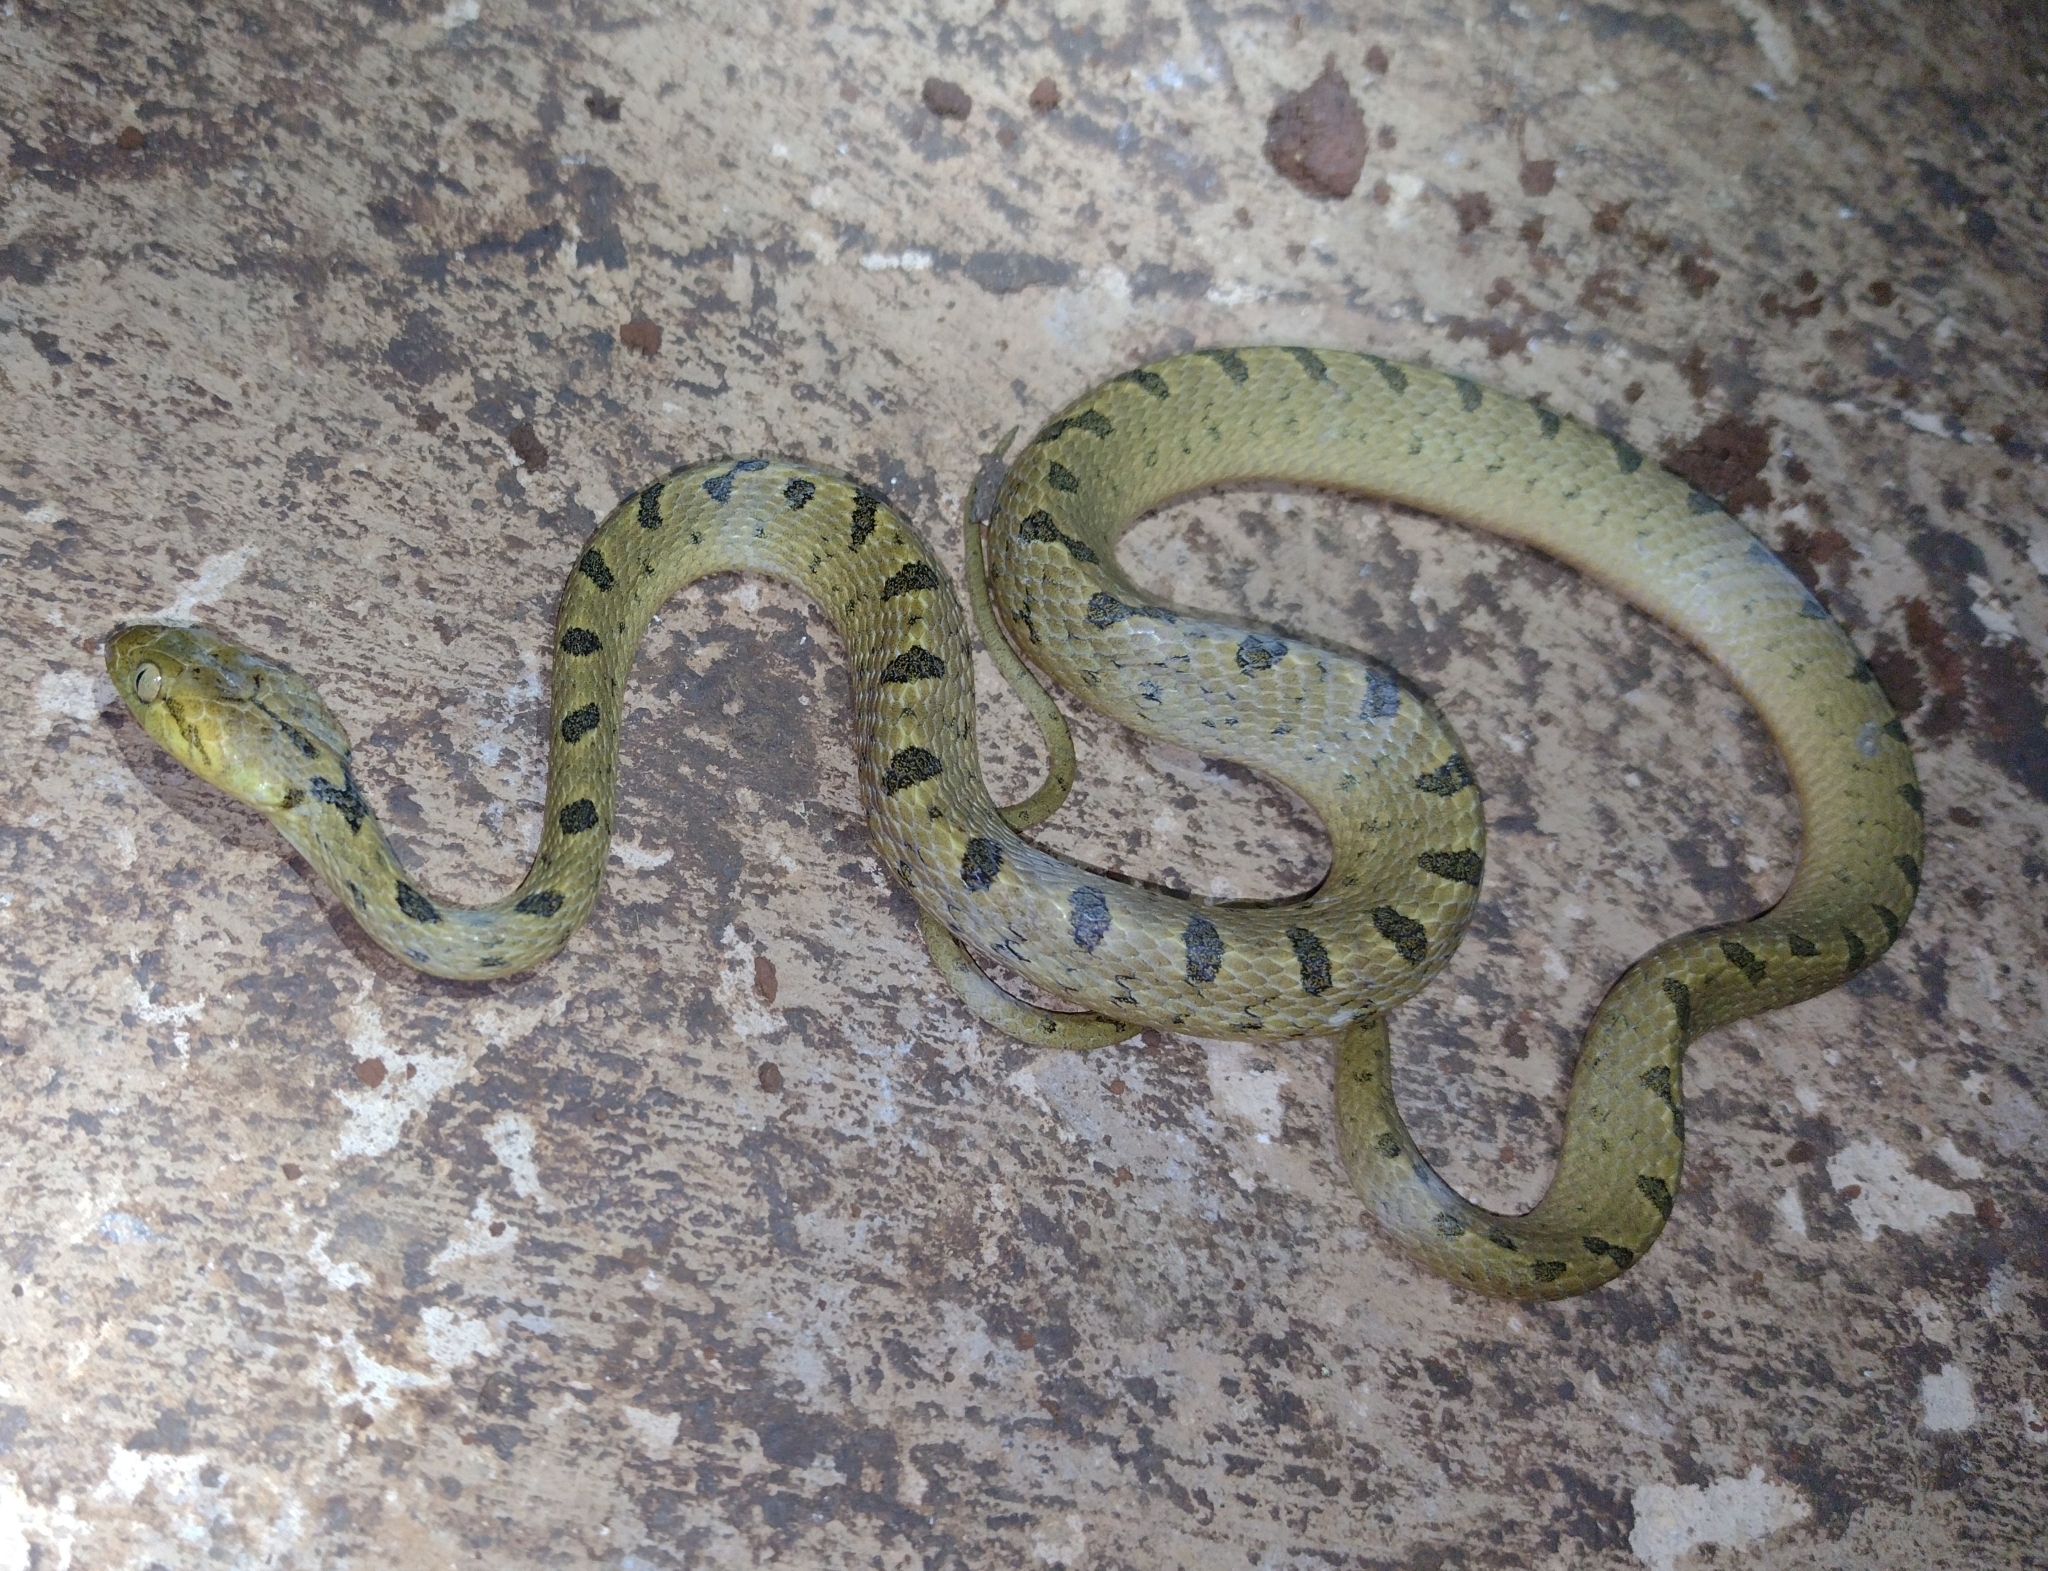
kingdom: Animalia
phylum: Chordata
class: Squamata
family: Colubridae
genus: Leptodeira
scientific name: Leptodeira septentrionalis
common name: Northern cat-eyed snake
